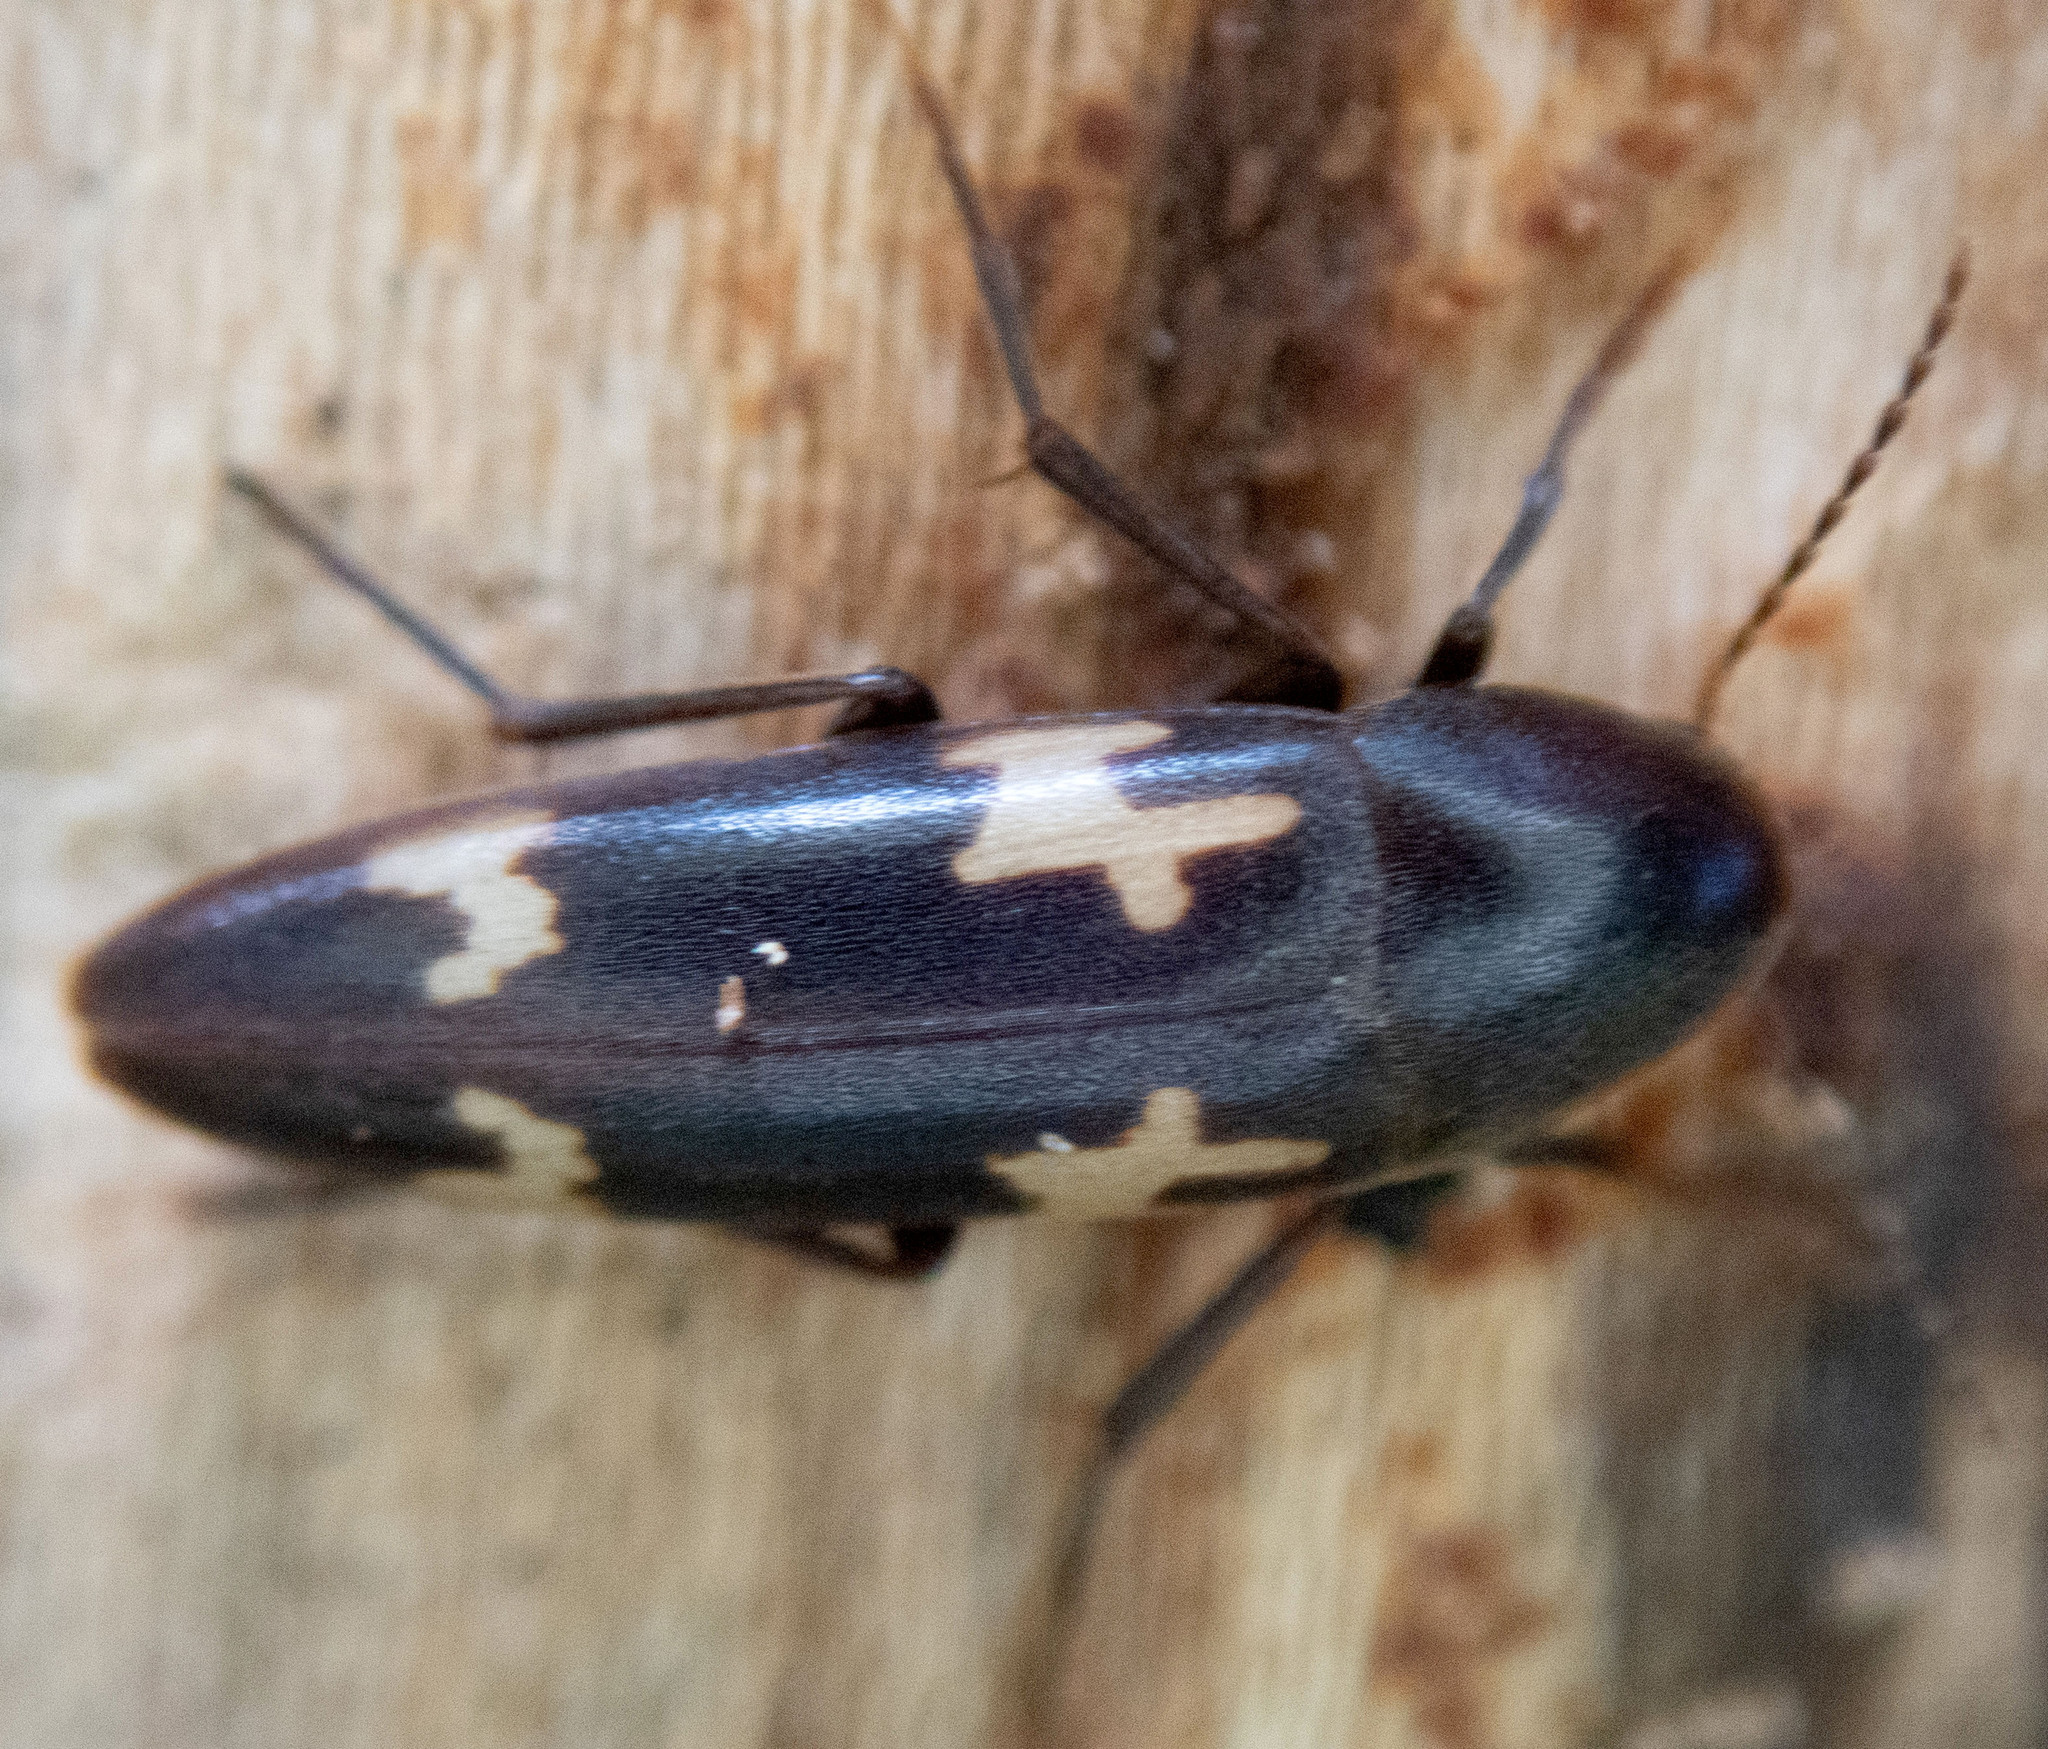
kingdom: Animalia
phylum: Arthropoda
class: Insecta
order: Coleoptera
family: Melandryidae
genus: Dircaea
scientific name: Dircaea liturata
